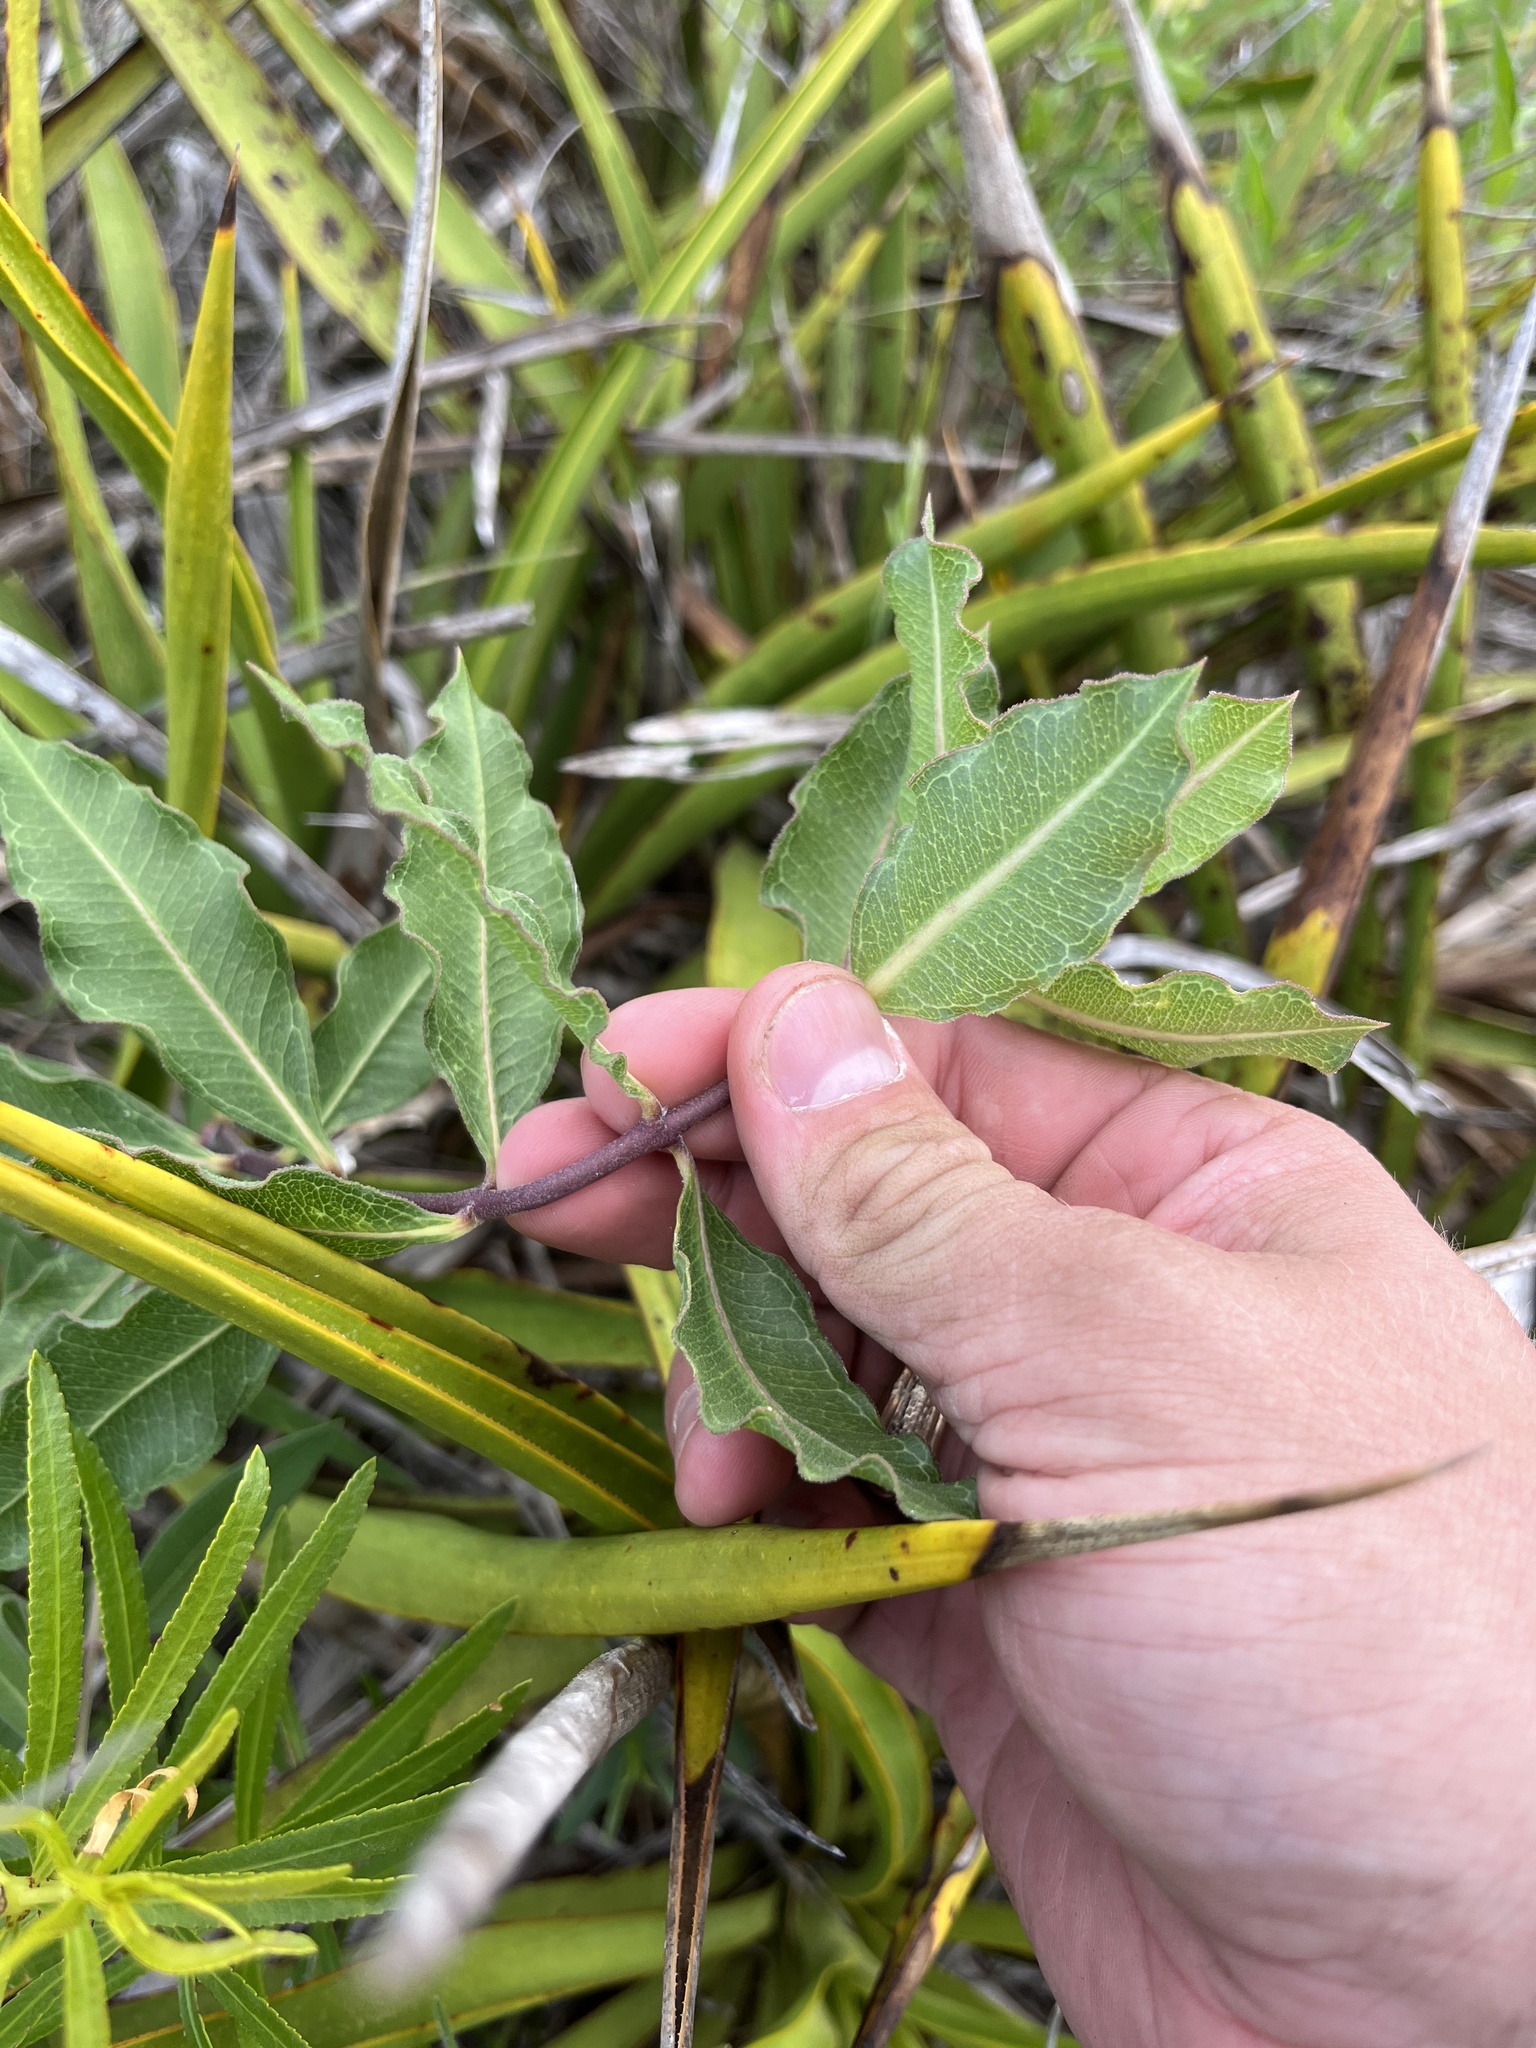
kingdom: Plantae
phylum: Tracheophyta
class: Magnoliopsida
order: Gentianales
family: Apocynaceae
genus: Asclepias
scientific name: Asclepias viridiflora
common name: Green comet milkweed
